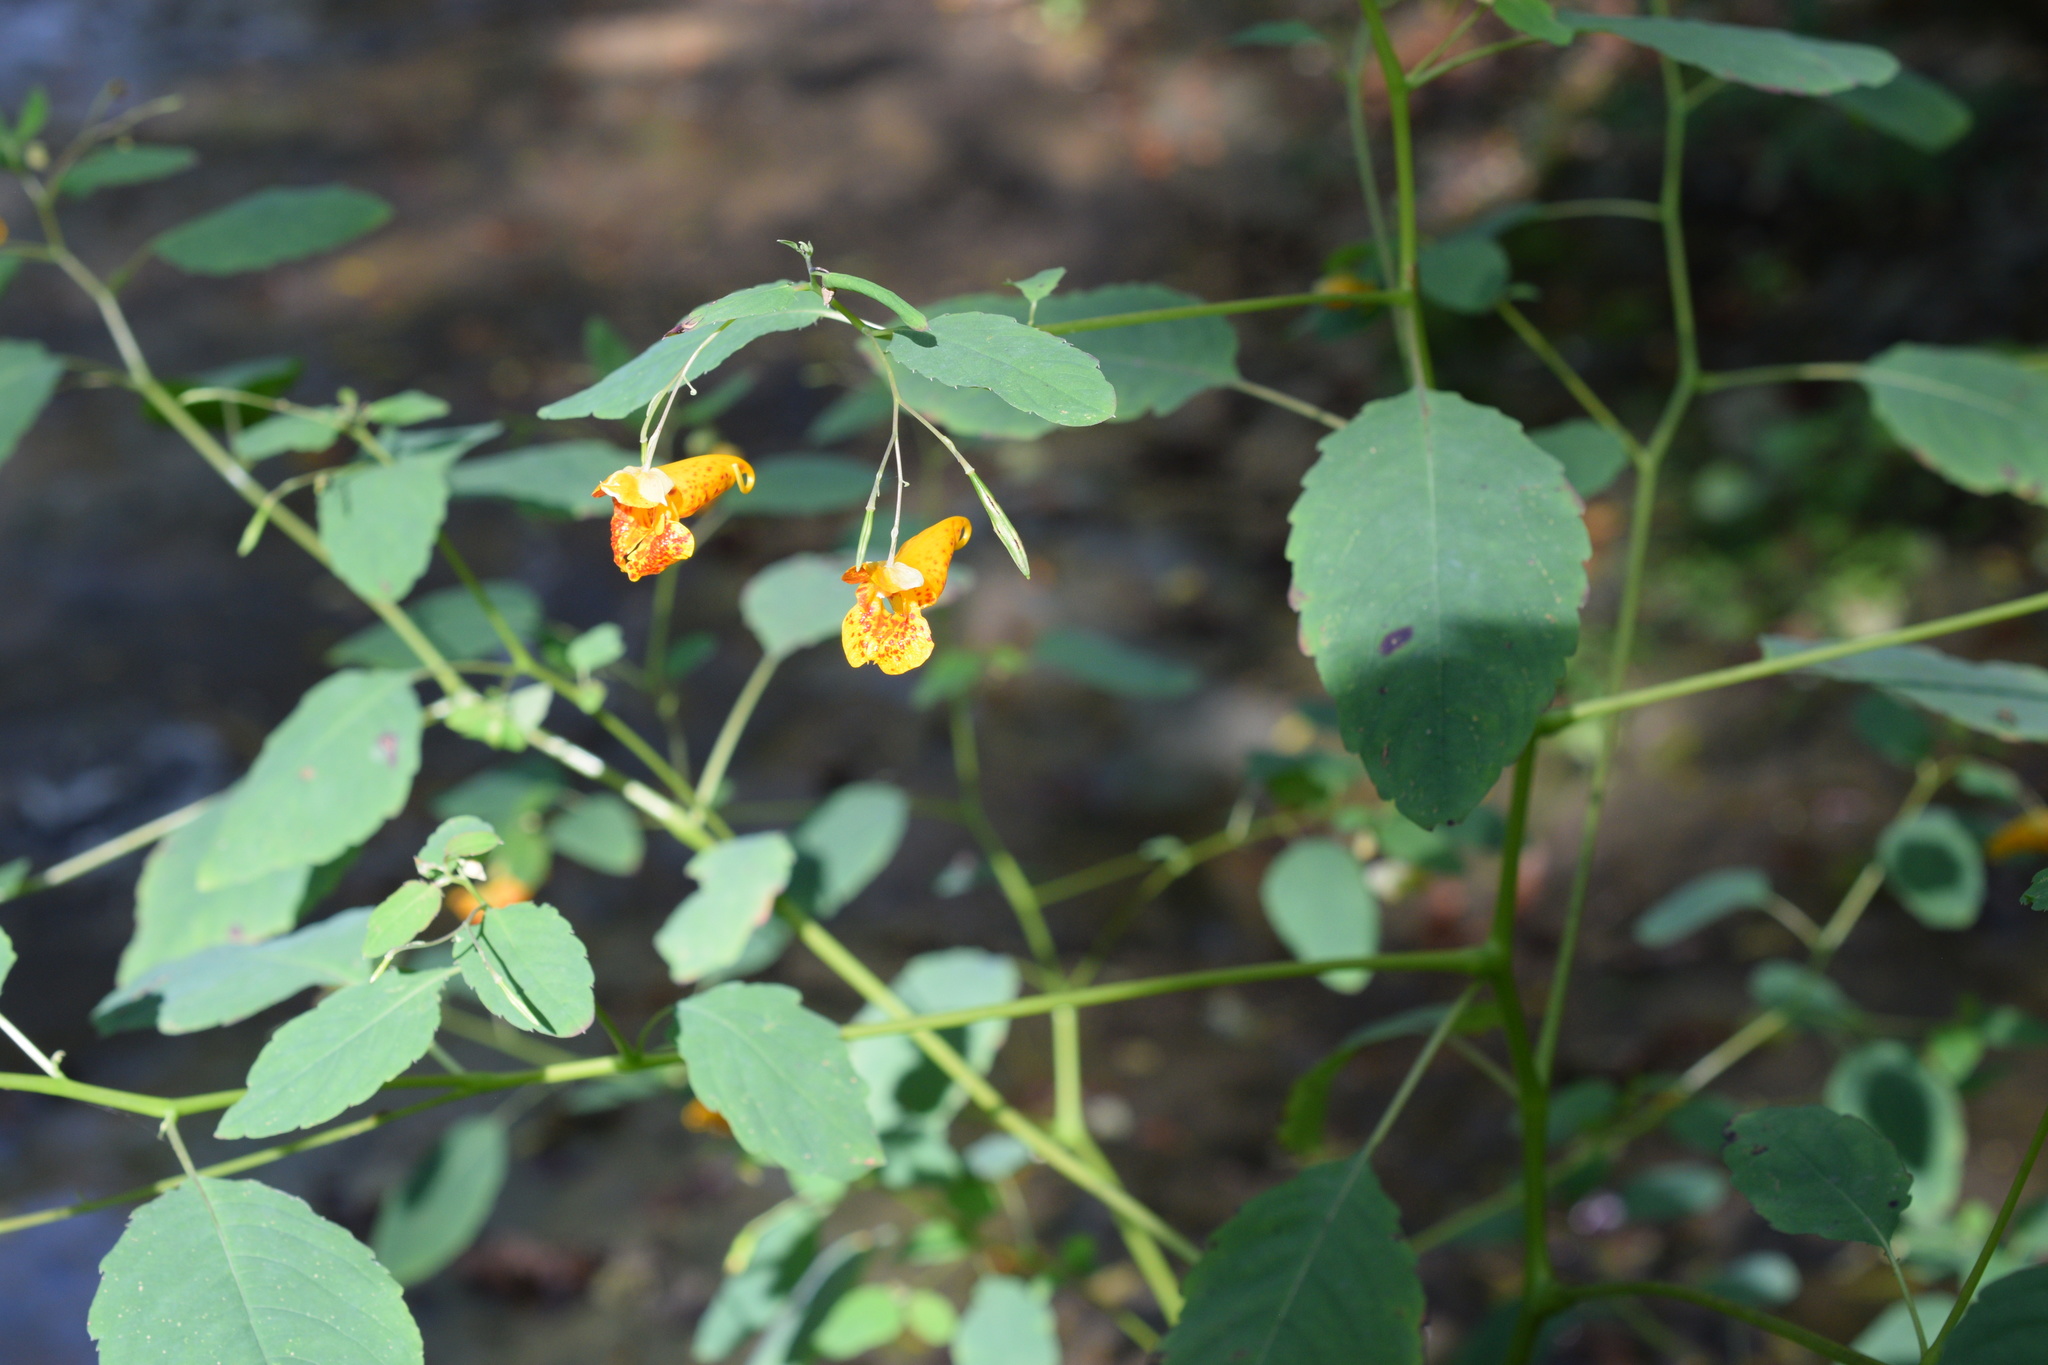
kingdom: Plantae
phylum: Tracheophyta
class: Magnoliopsida
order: Ericales
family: Balsaminaceae
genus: Impatiens
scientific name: Impatiens capensis
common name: Orange balsam
